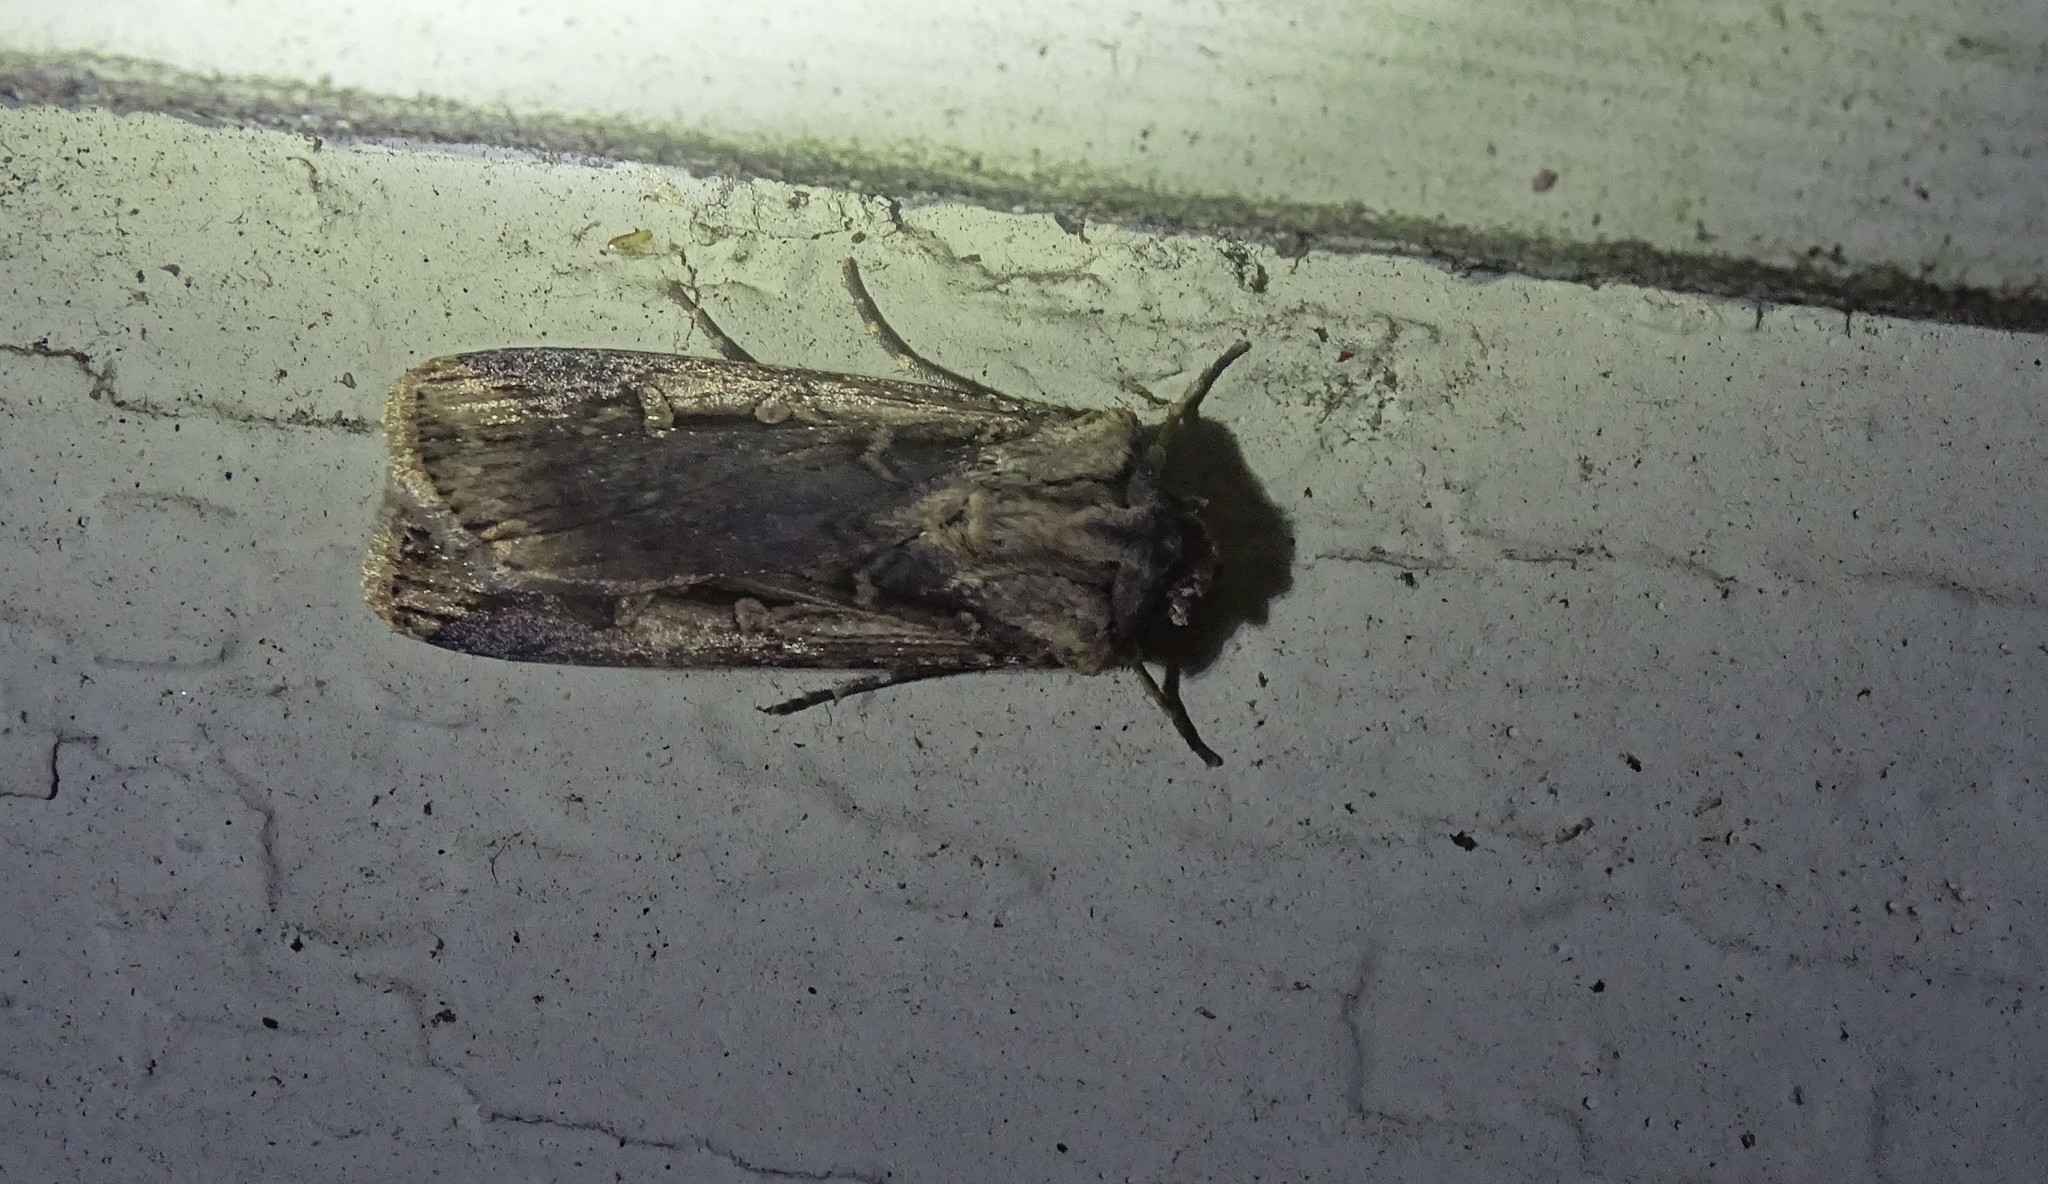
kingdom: Animalia
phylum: Arthropoda
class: Insecta
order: Lepidoptera
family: Noctuidae
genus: Feltia
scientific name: Feltia subterranea
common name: Granulate cutworm
